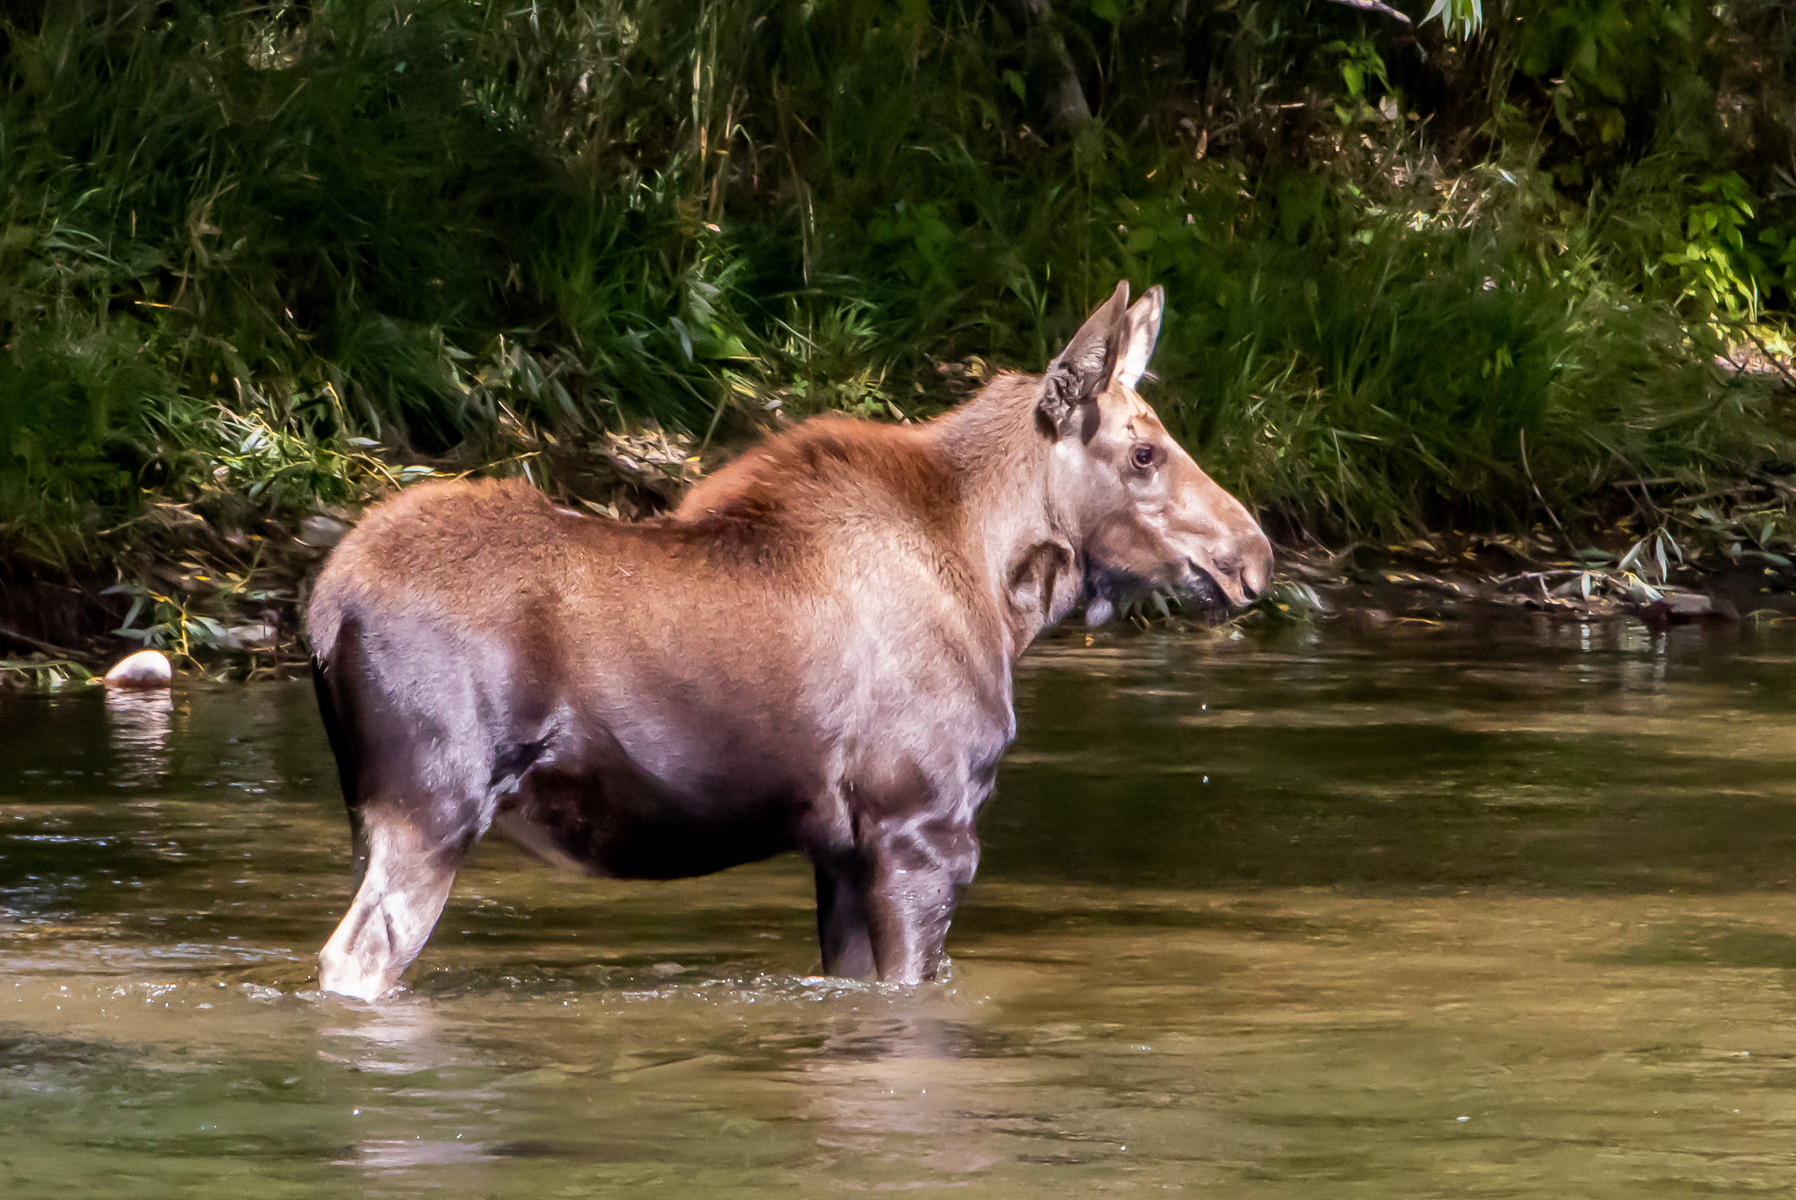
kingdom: Animalia
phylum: Chordata
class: Mammalia
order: Artiodactyla
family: Cervidae
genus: Alces
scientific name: Alces alces
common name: Moose
